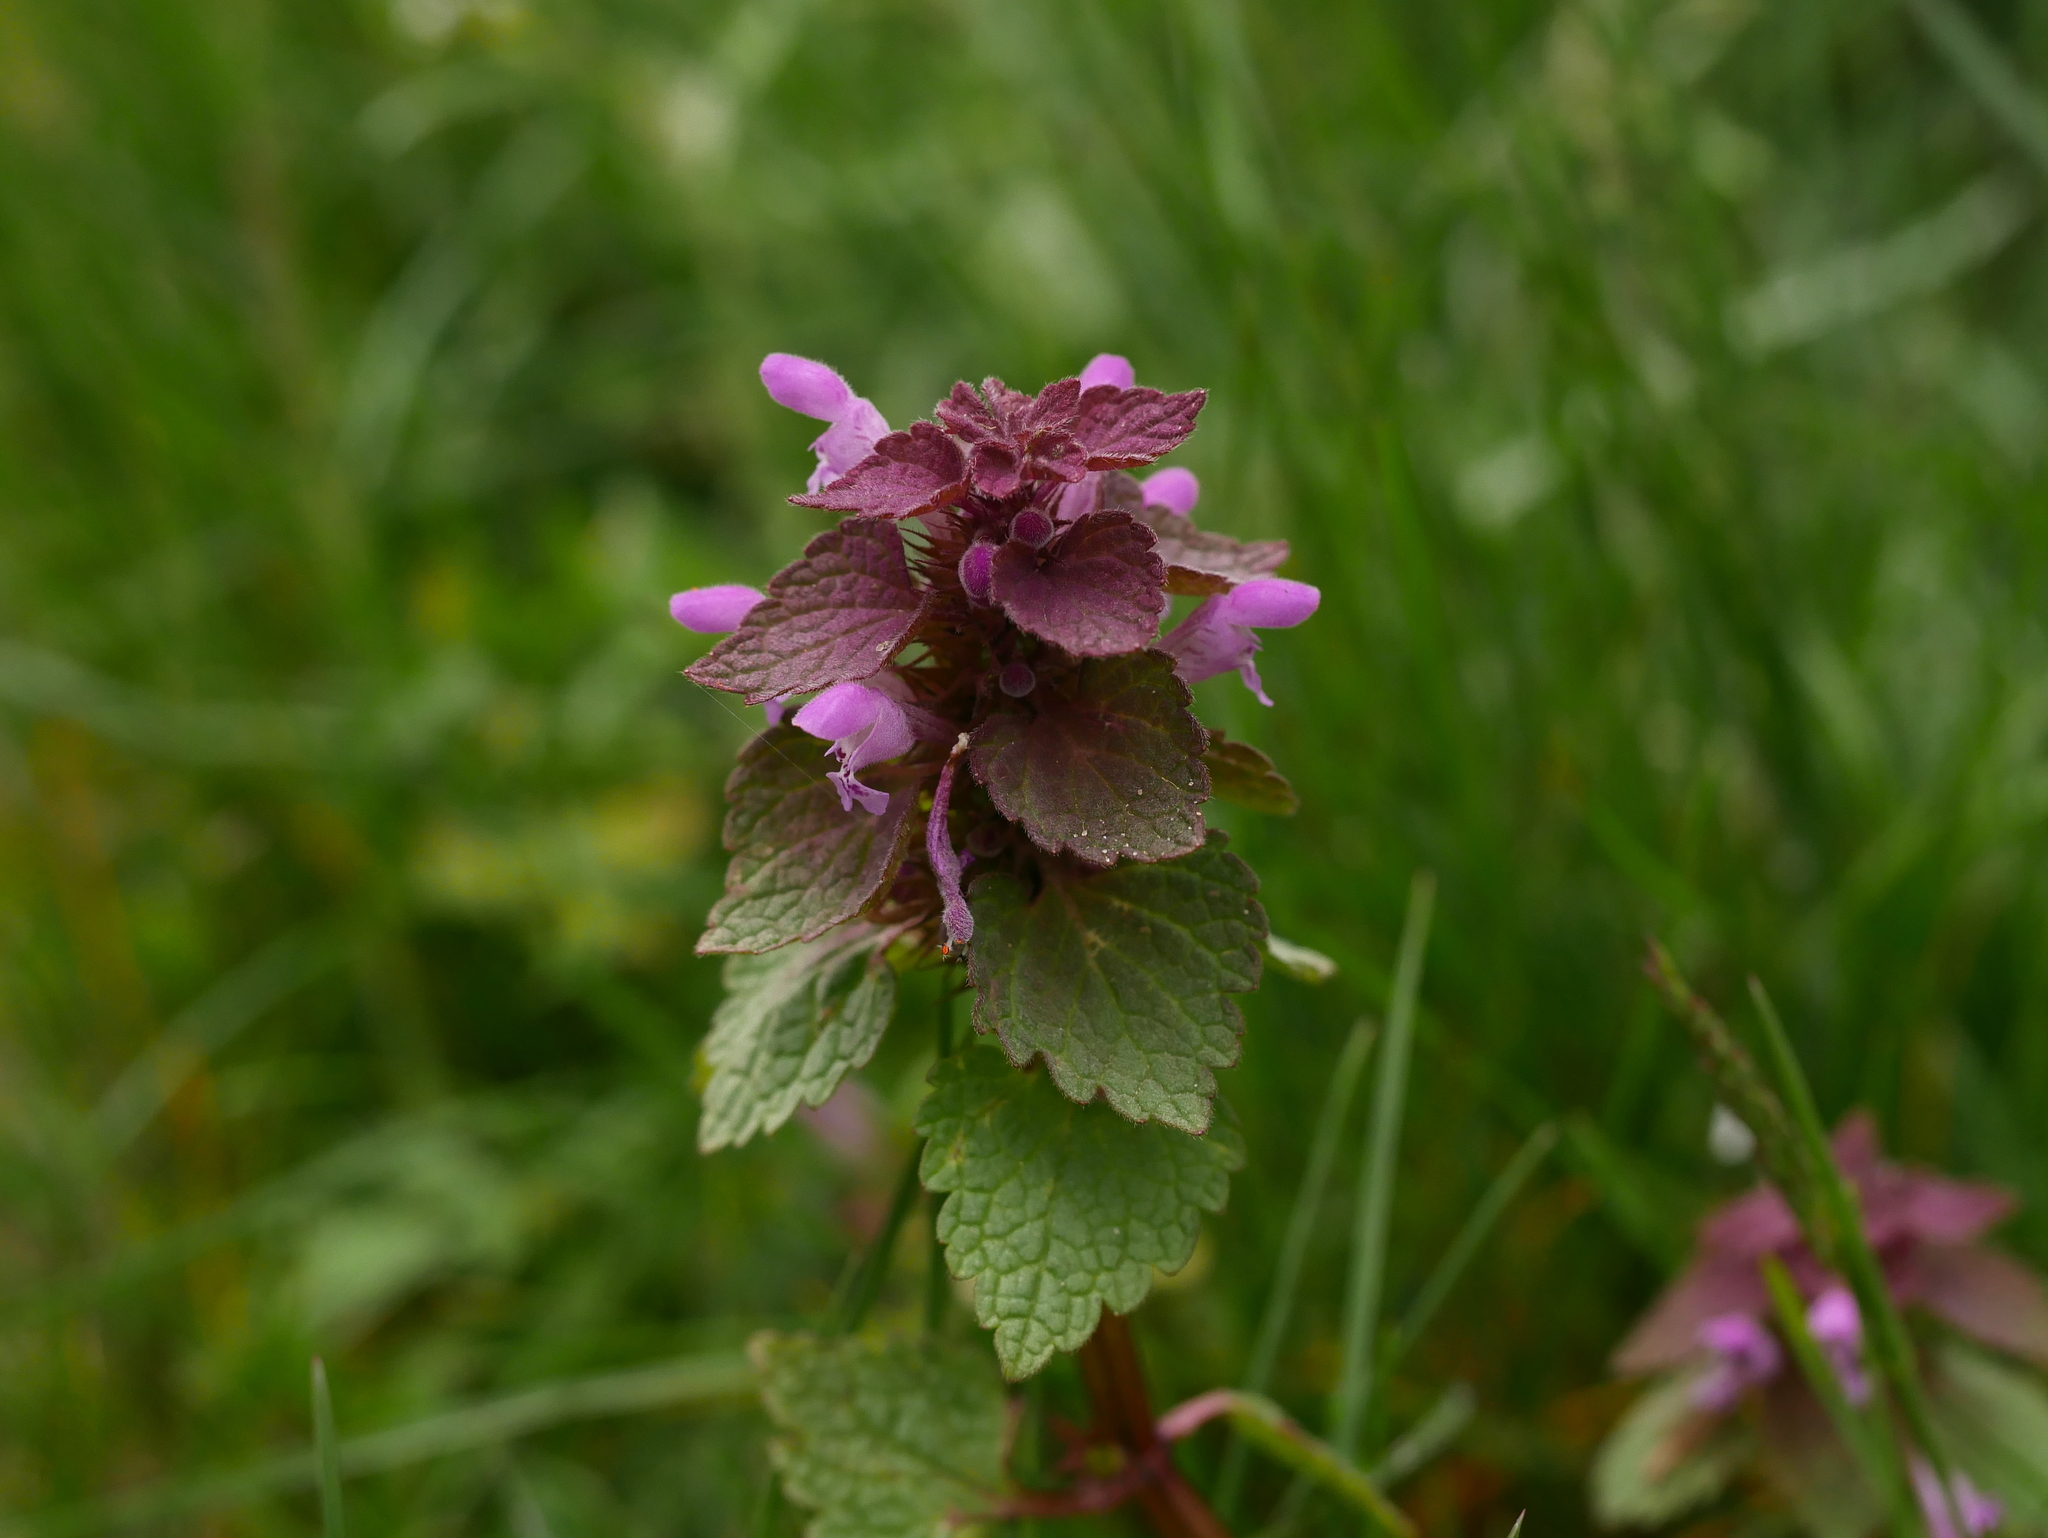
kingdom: Plantae
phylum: Tracheophyta
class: Magnoliopsida
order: Lamiales
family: Lamiaceae
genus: Lamium
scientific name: Lamium purpureum
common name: Red dead-nettle
